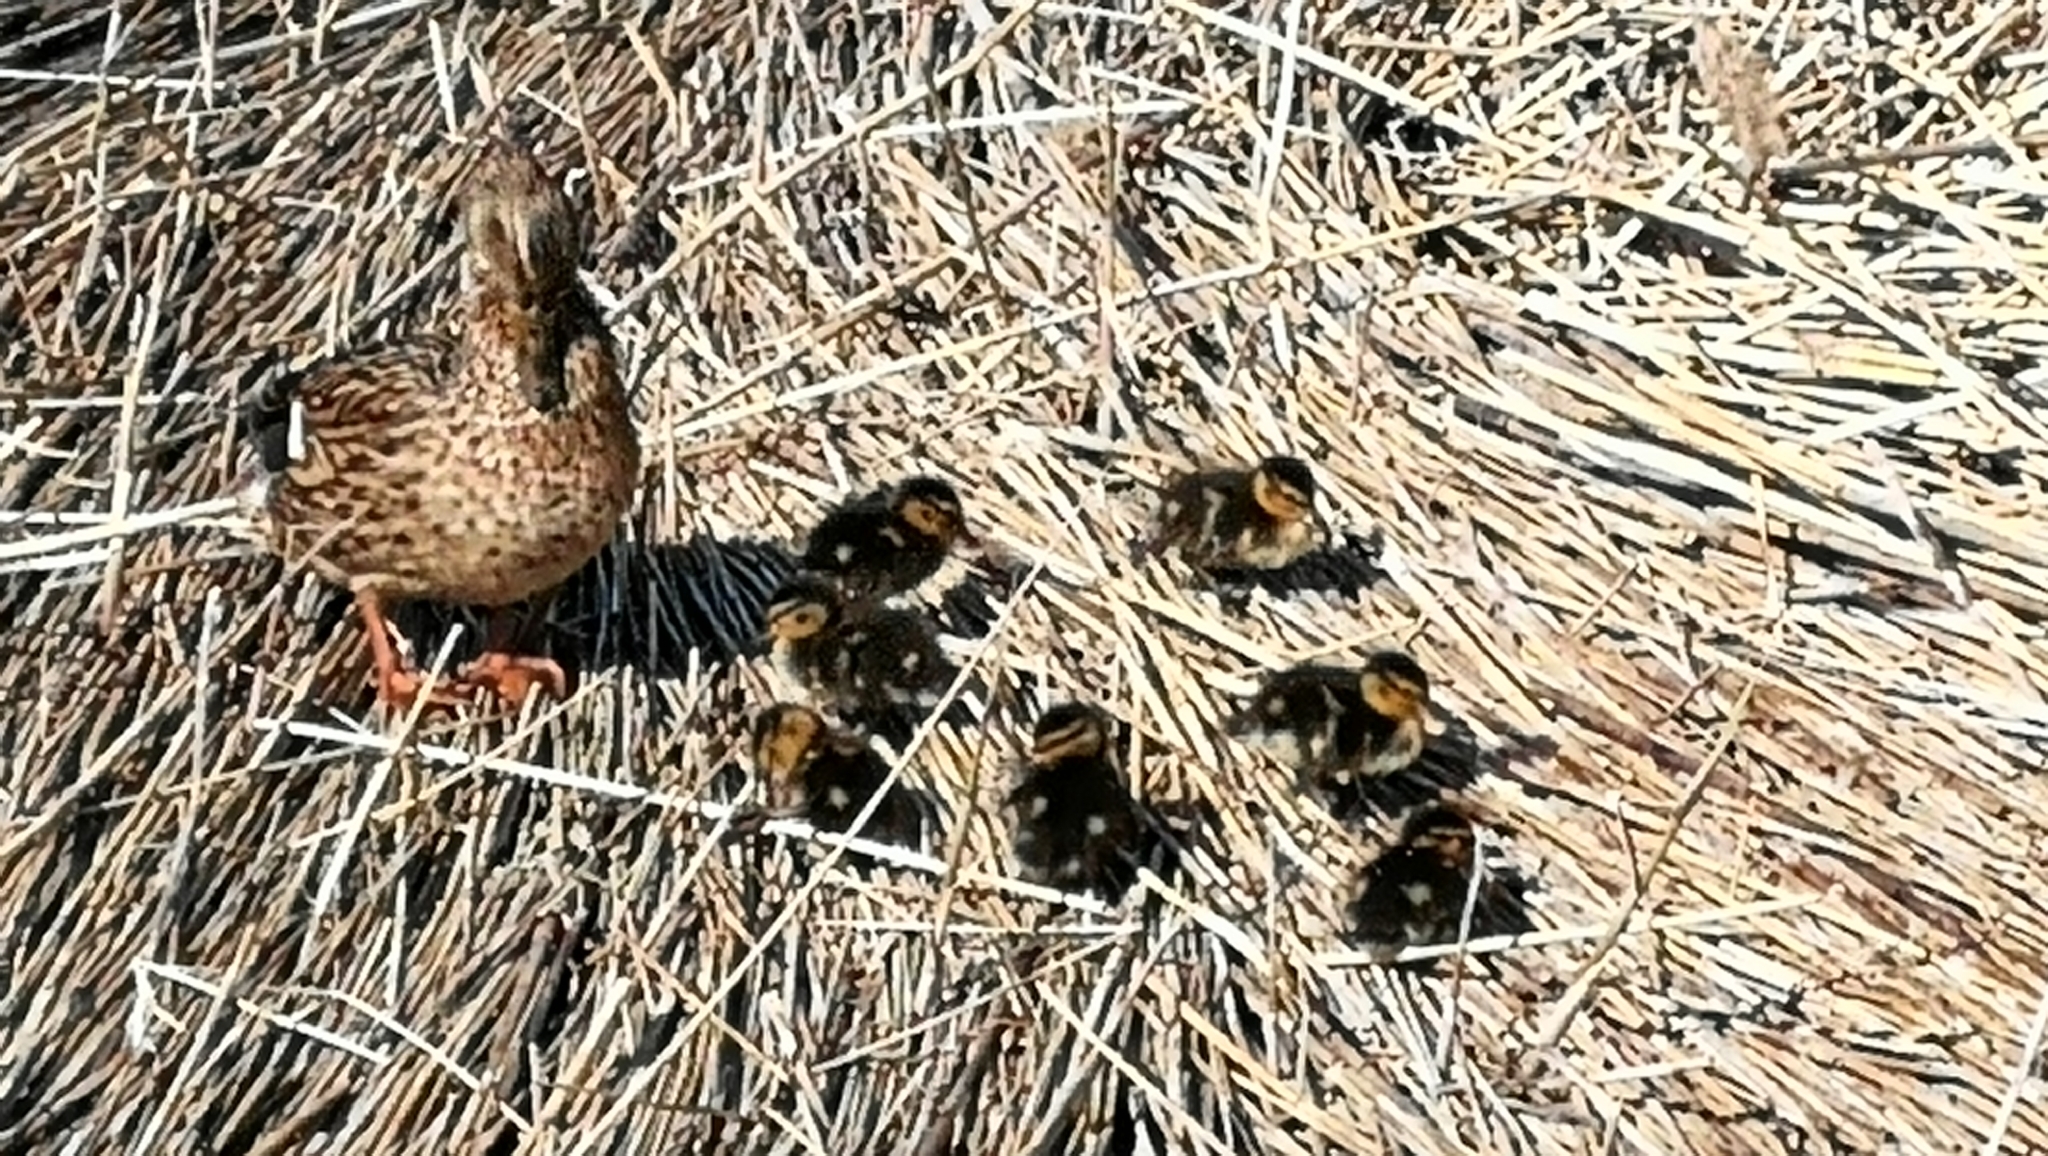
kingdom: Animalia
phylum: Chordata
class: Aves
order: Anseriformes
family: Anatidae
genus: Anas
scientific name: Anas platyrhynchos
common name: Mallard
